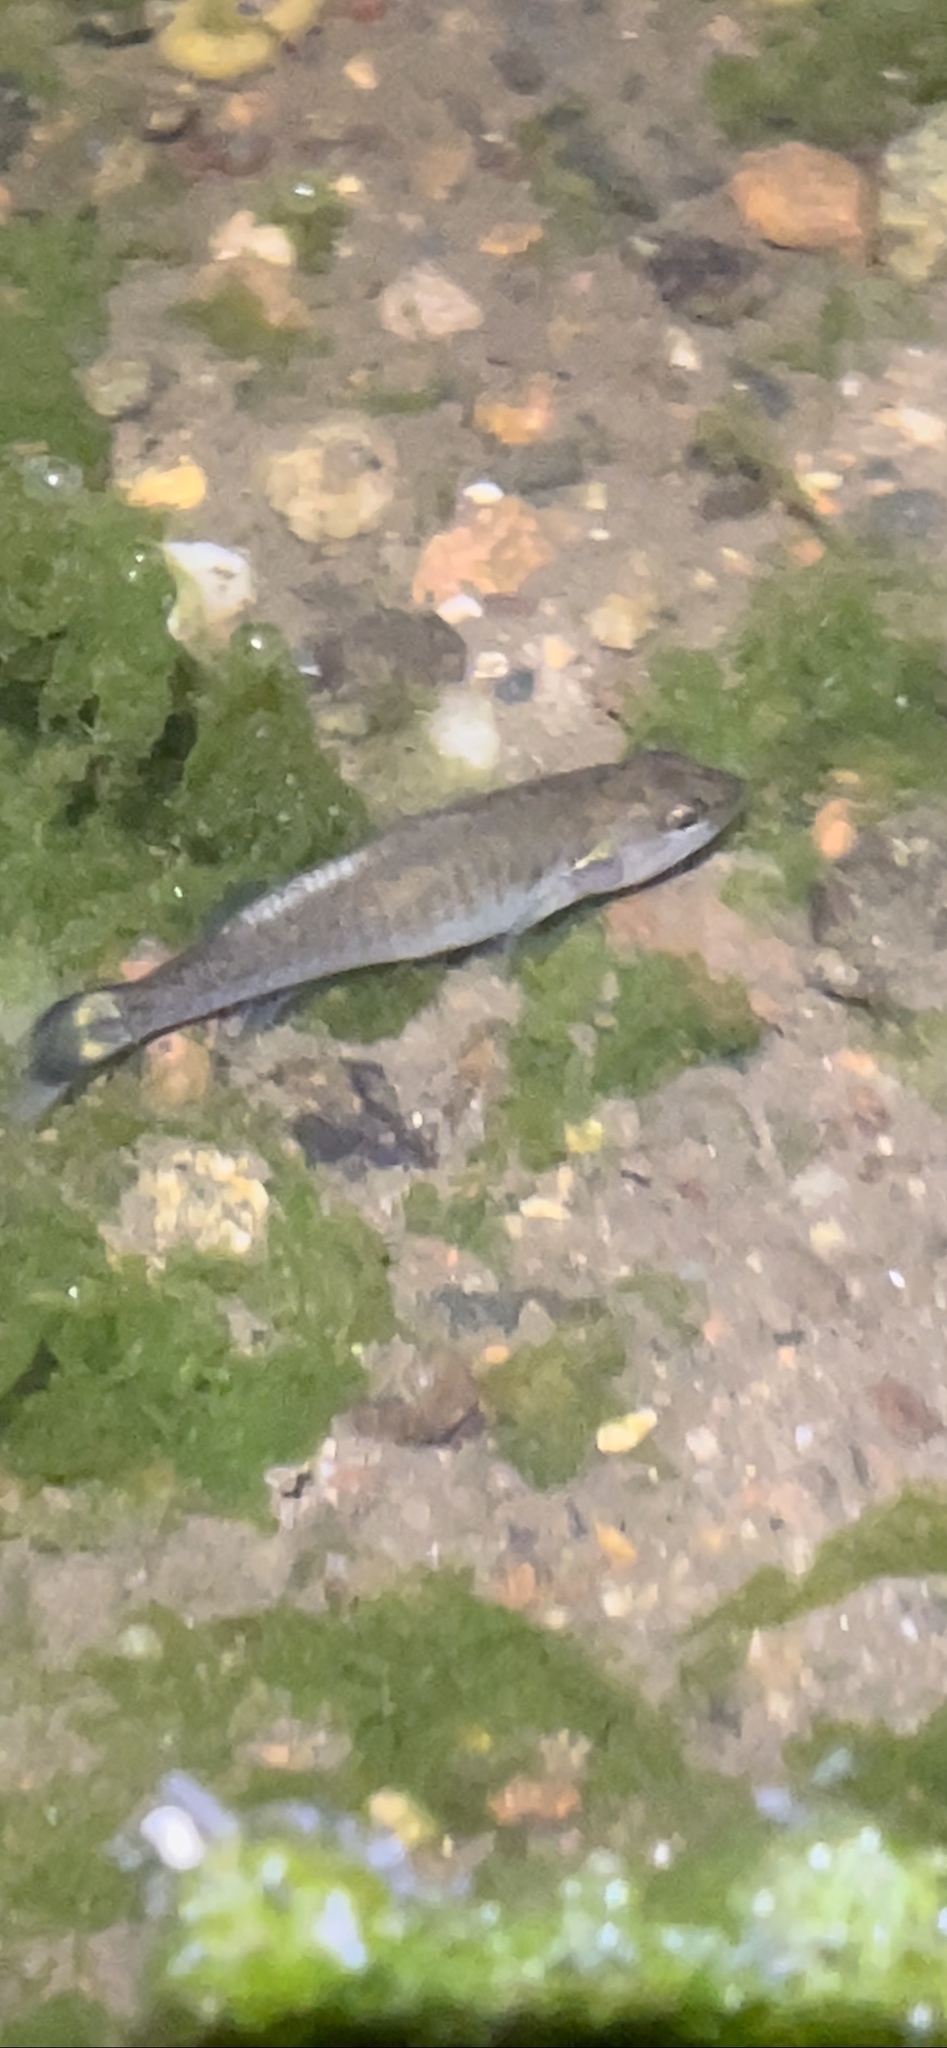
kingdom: Animalia
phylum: Chordata
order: Perciformes
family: Centrarchidae
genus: Micropterus
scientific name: Micropterus dolomieu
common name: Smallmouth bass
